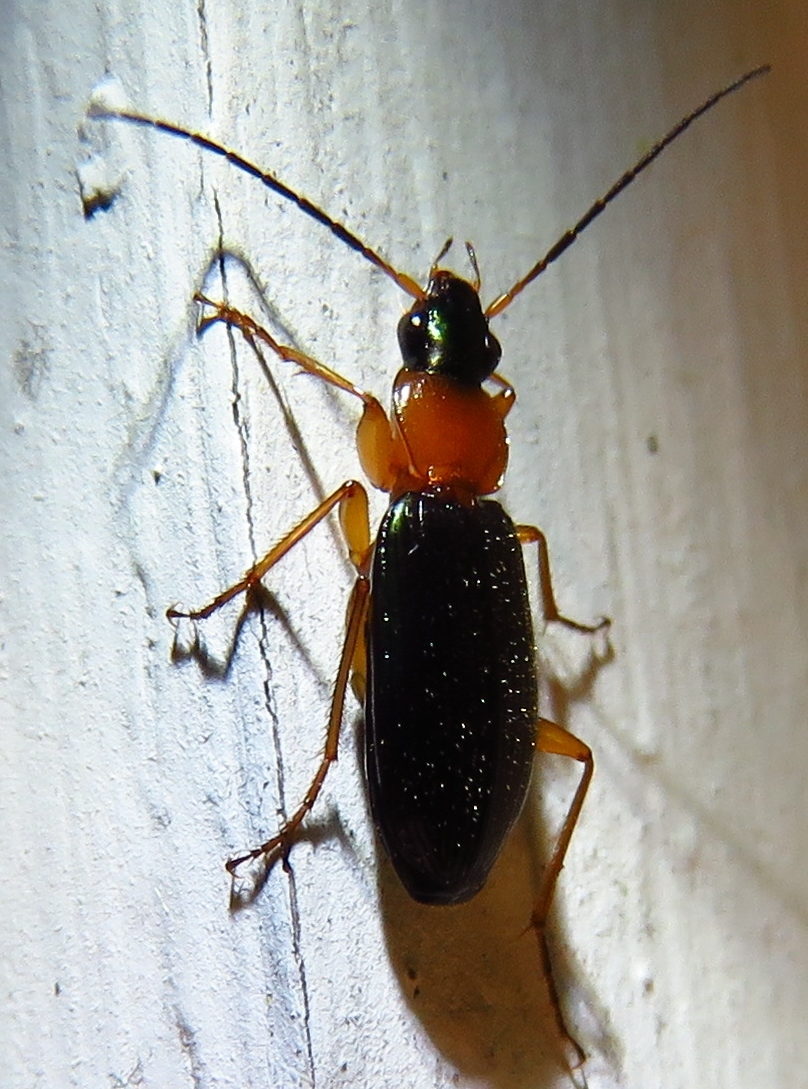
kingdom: Animalia
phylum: Arthropoda
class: Insecta
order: Coleoptera
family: Carabidae
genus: Agonum
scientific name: Agonum decorum
